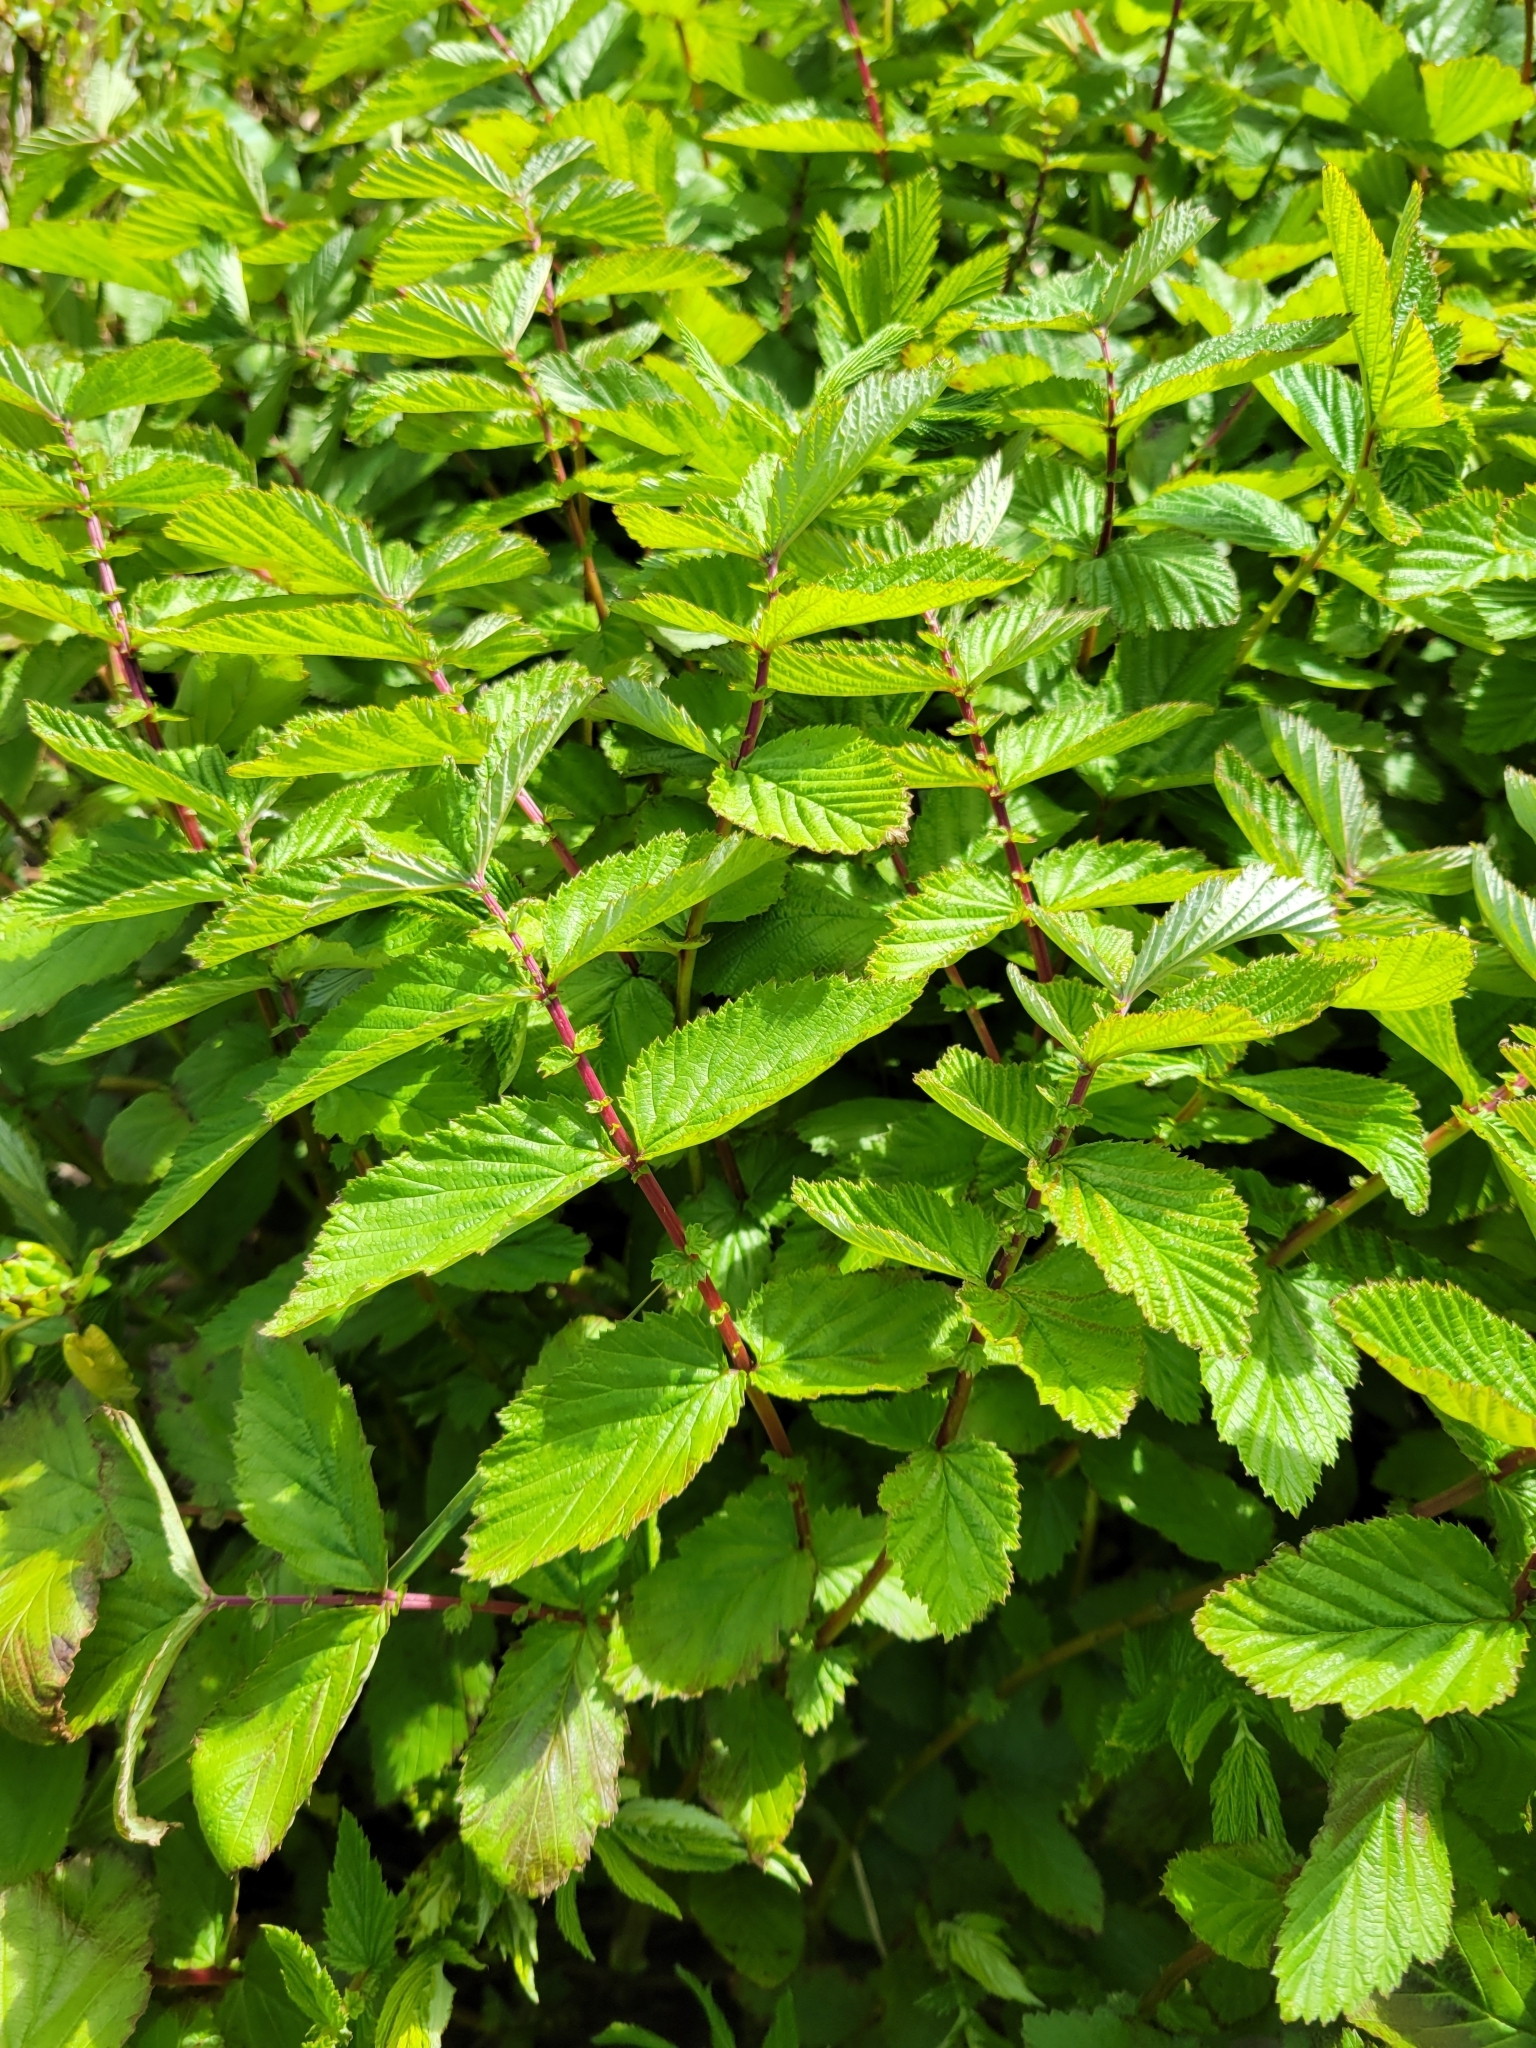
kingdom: Plantae
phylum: Tracheophyta
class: Magnoliopsida
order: Rosales
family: Rosaceae
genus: Filipendula
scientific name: Filipendula ulmaria
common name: Meadowsweet
